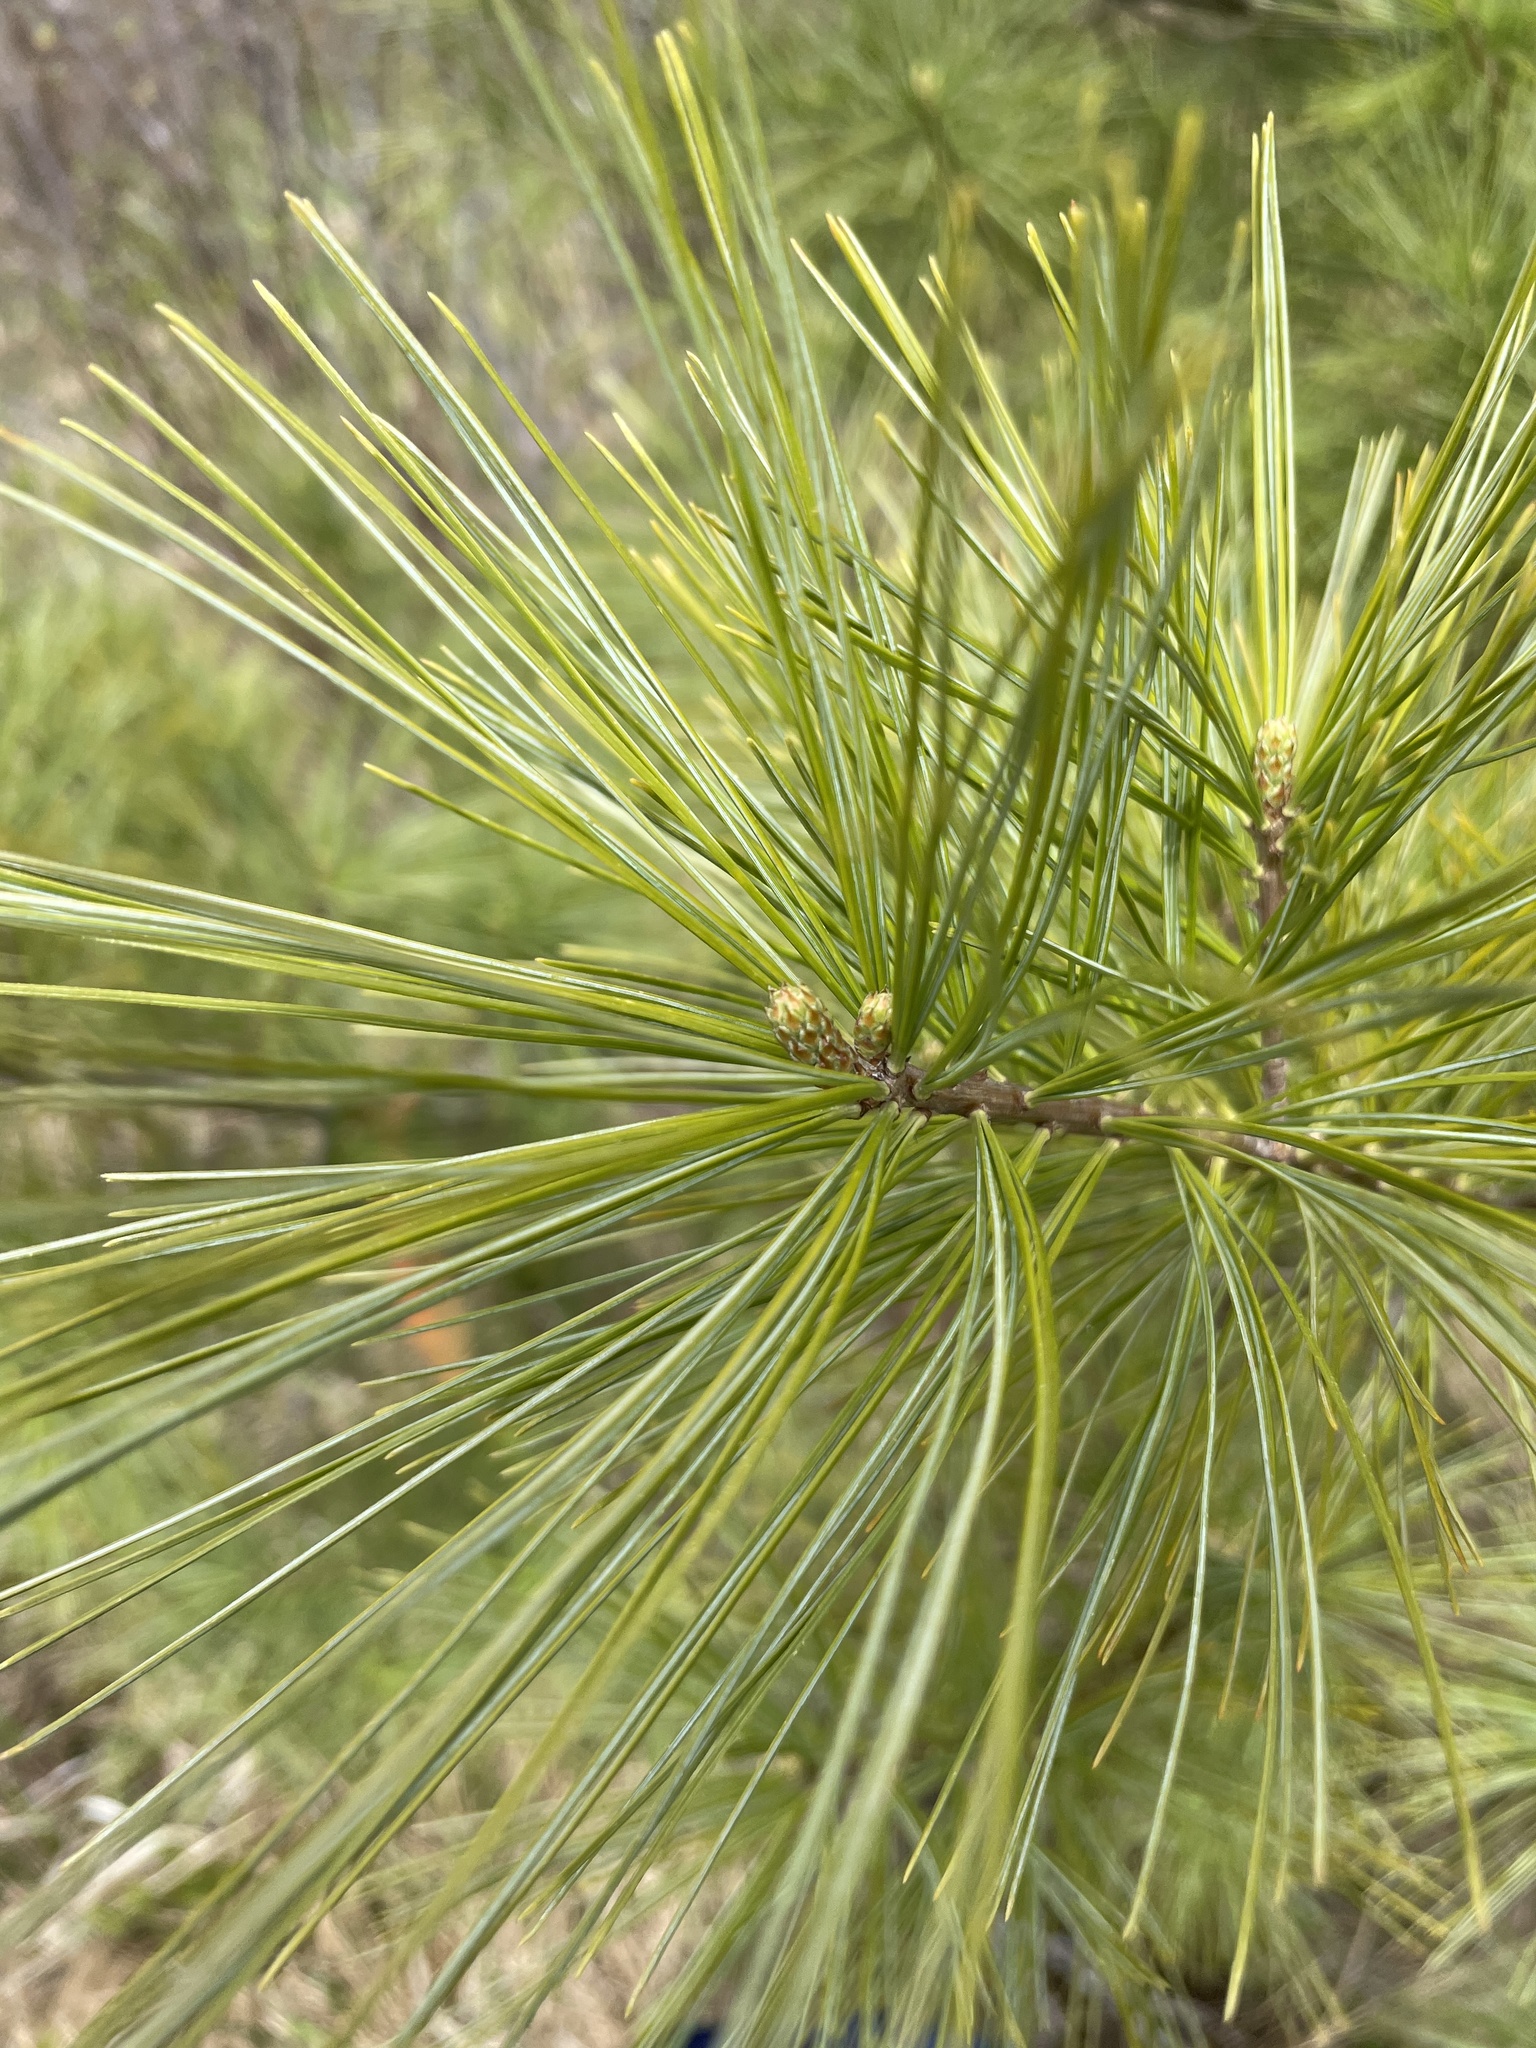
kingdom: Plantae
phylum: Tracheophyta
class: Pinopsida
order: Pinales
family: Pinaceae
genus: Pinus
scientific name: Pinus strobus
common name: Weymouth pine
